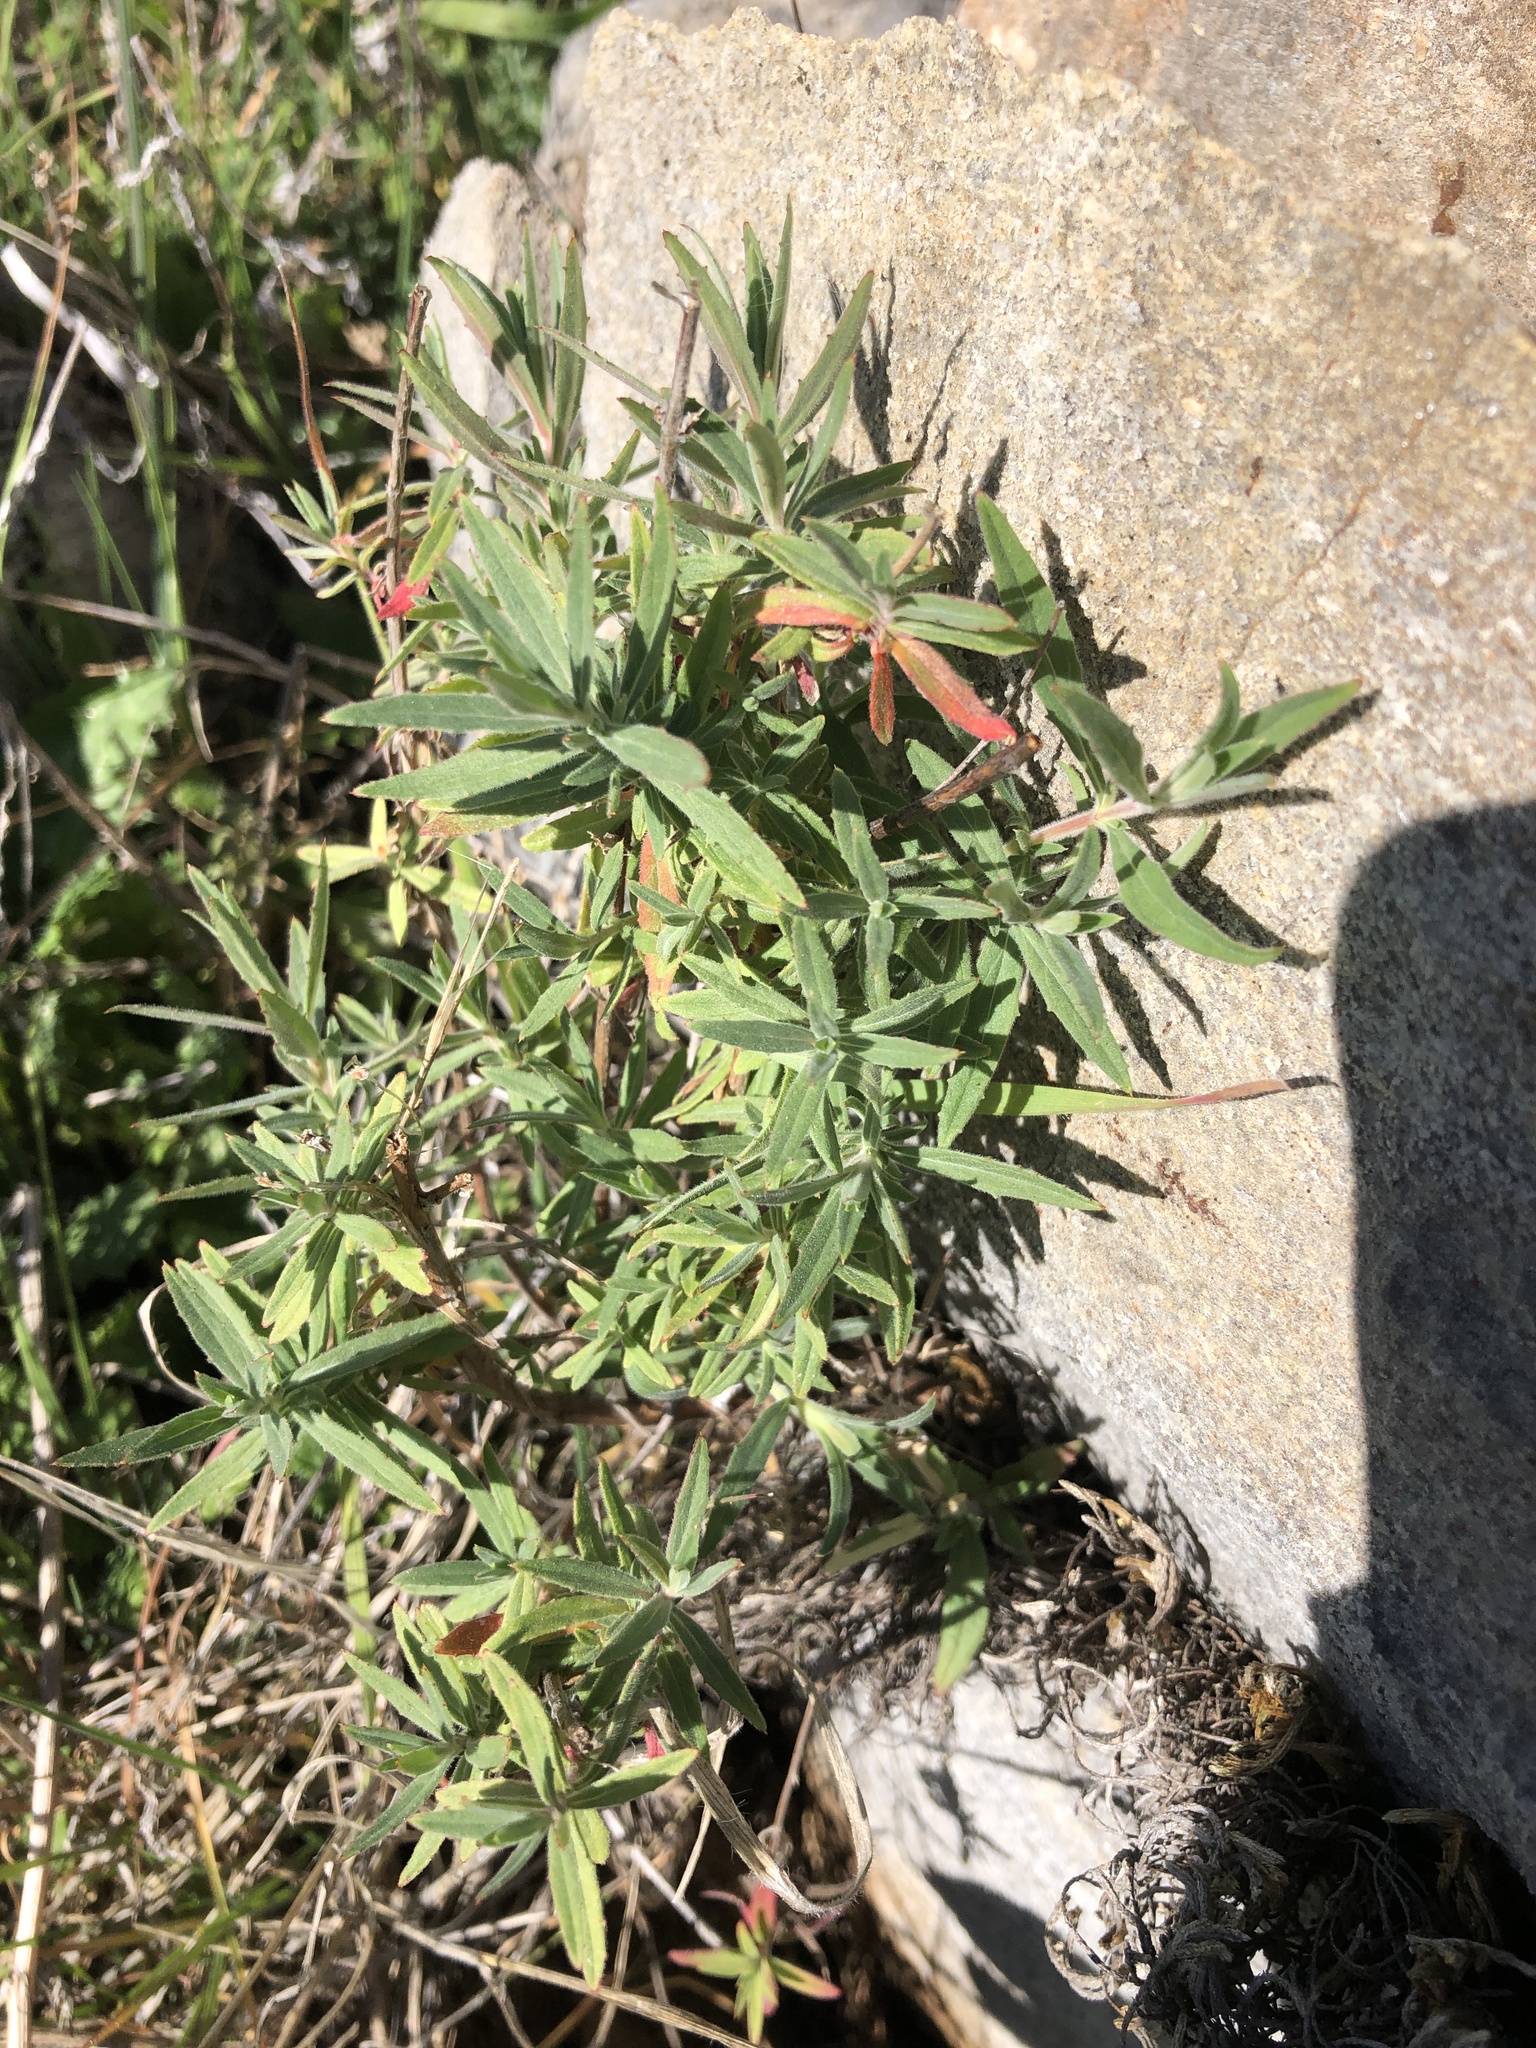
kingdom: Plantae
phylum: Tracheophyta
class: Magnoliopsida
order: Myrtales
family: Onagraceae
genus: Epilobium
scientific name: Epilobium canum
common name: California-fuchsia
